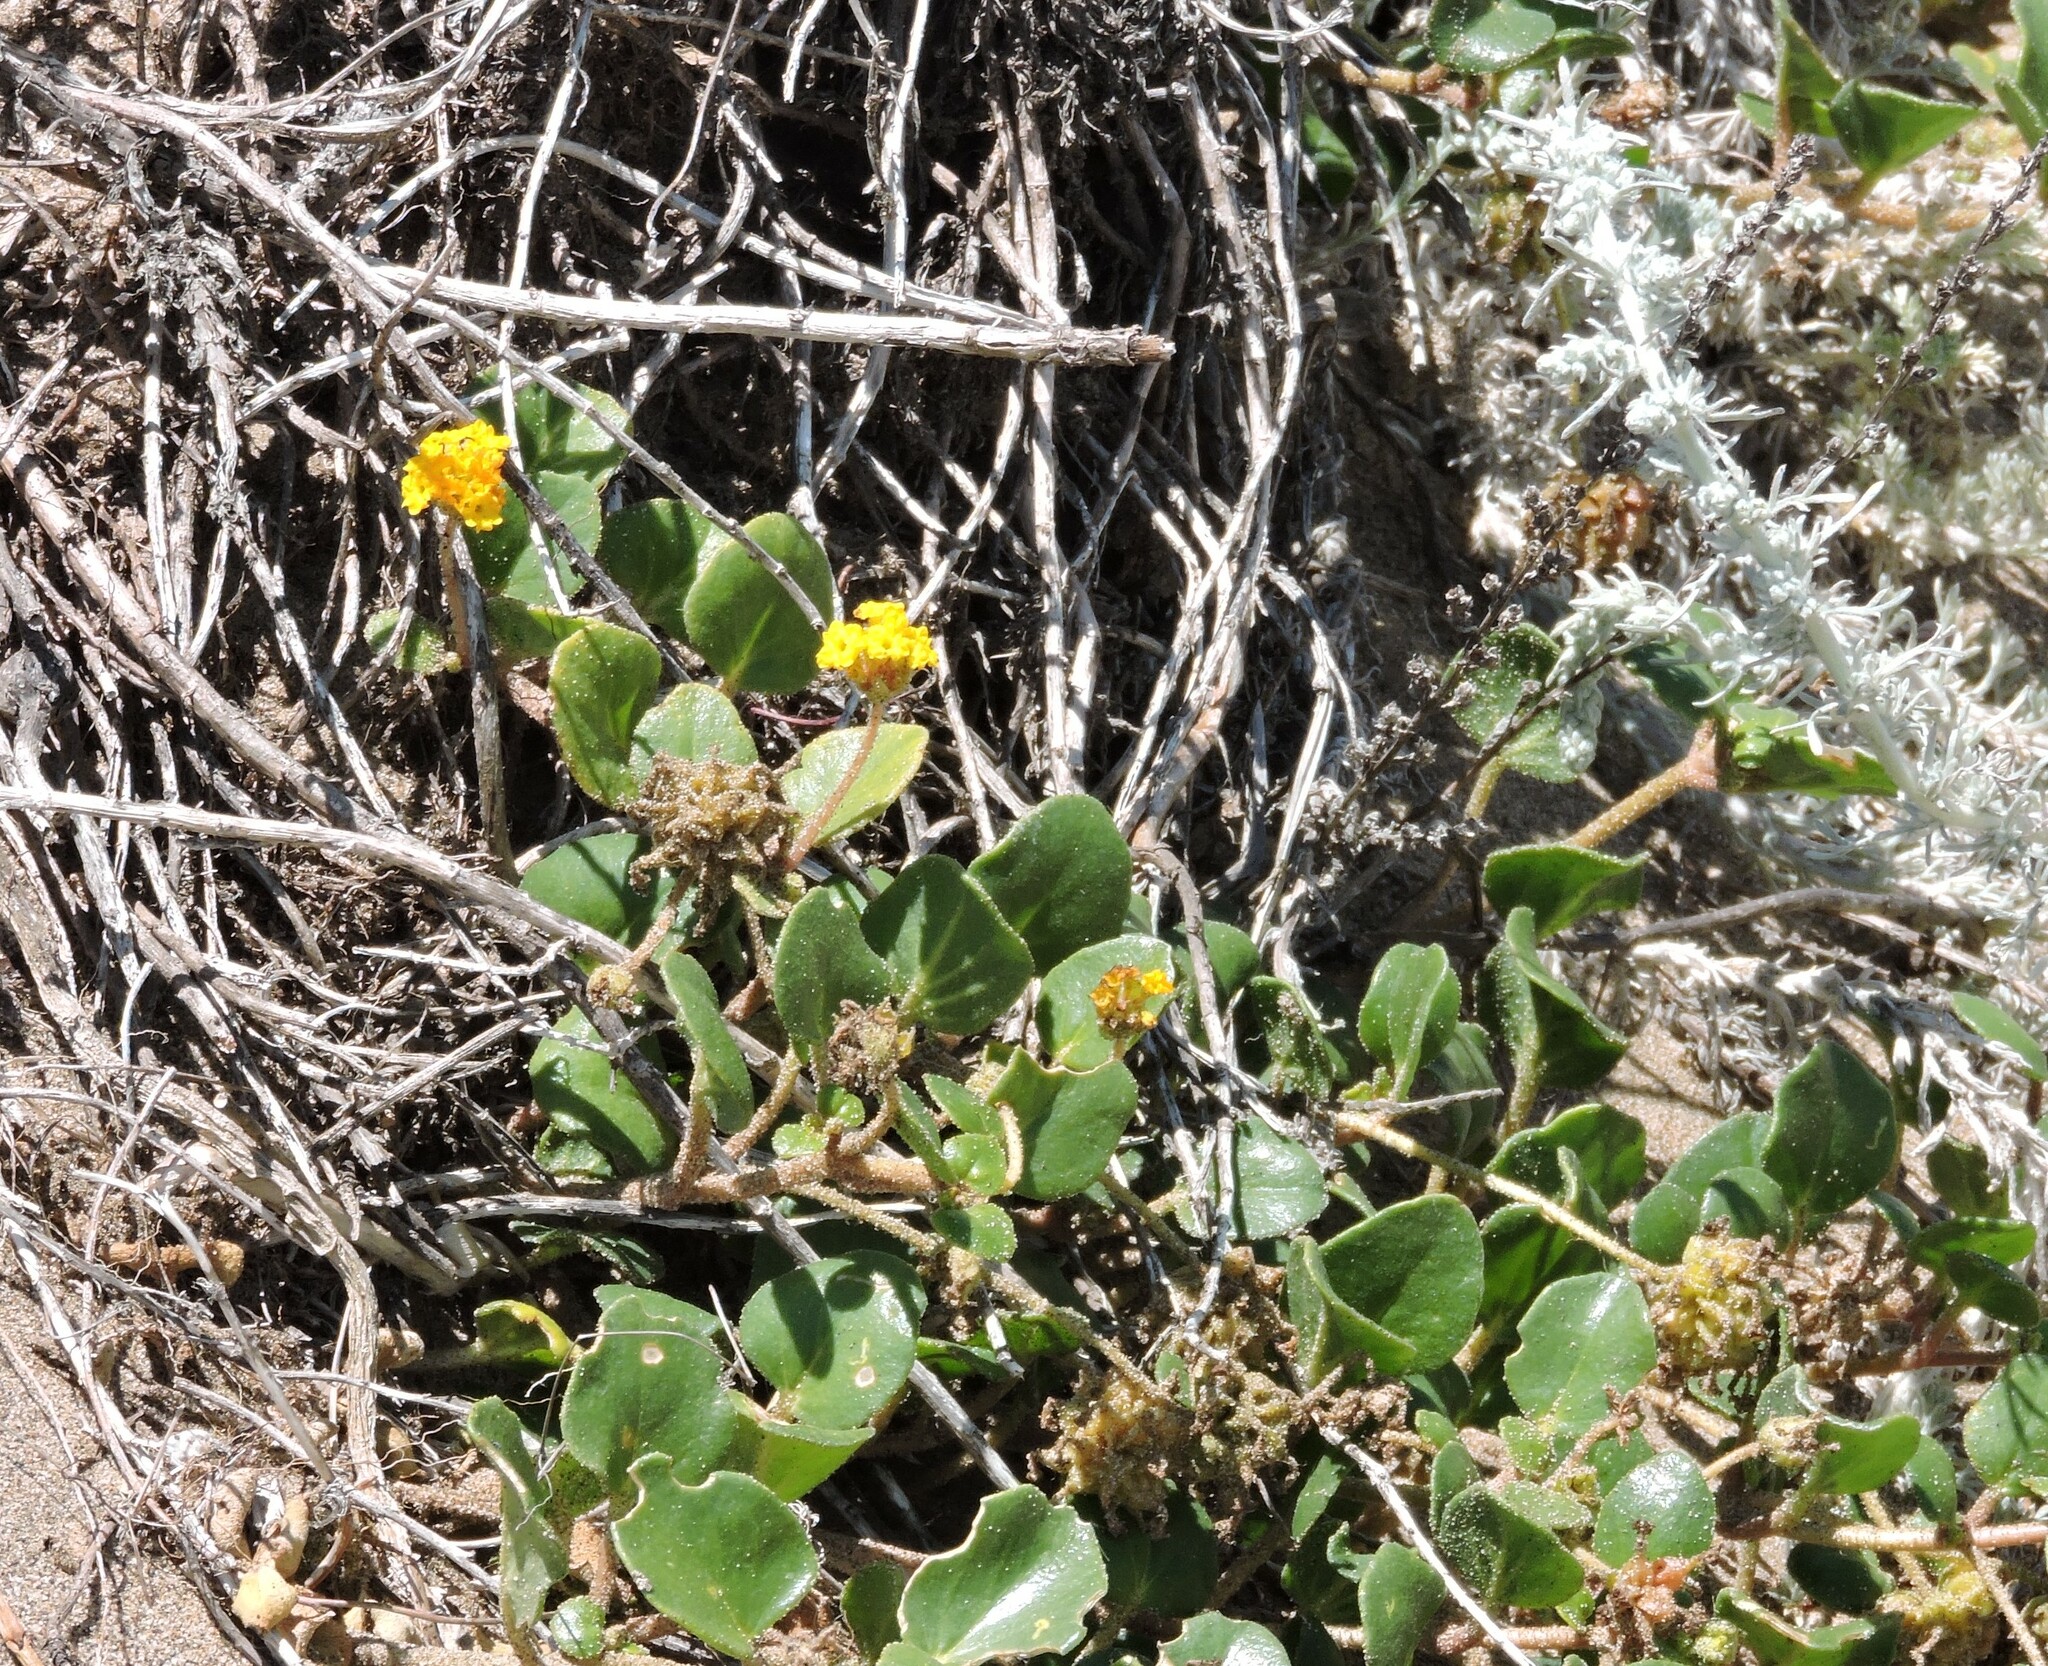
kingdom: Plantae
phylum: Tracheophyta
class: Magnoliopsida
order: Caryophyllales
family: Nyctaginaceae
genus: Abronia
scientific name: Abronia latifolia
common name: Yellow sand-verbena
